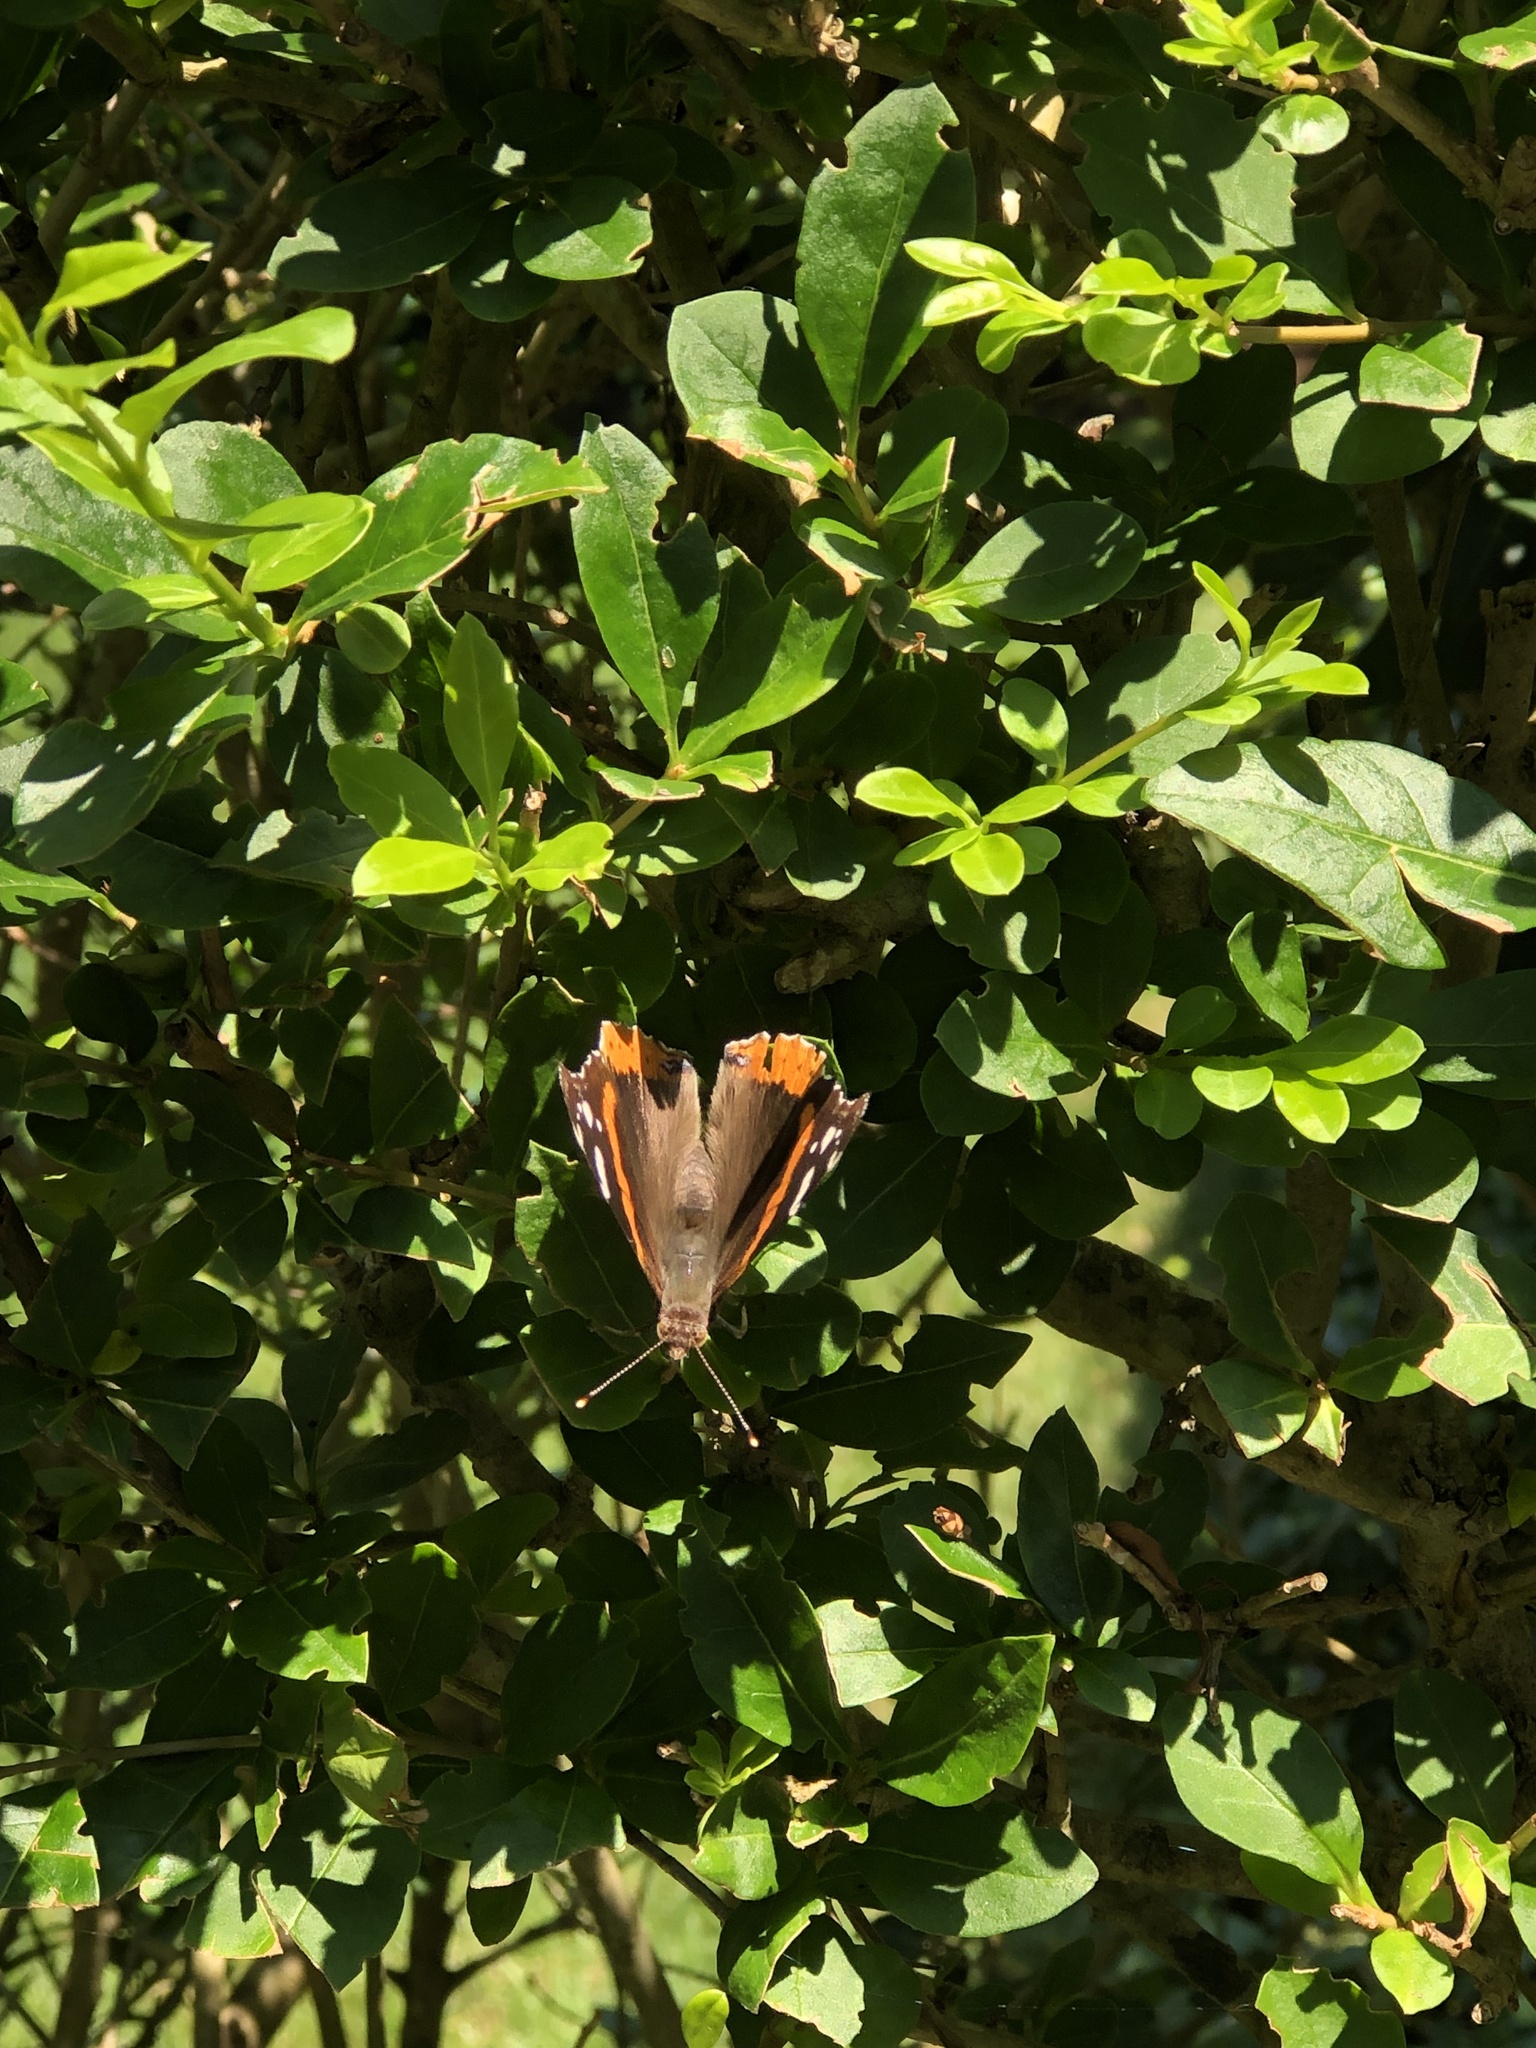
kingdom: Animalia
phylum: Arthropoda
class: Insecta
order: Lepidoptera
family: Nymphalidae
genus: Vanessa
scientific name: Vanessa atalanta
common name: Red admiral
